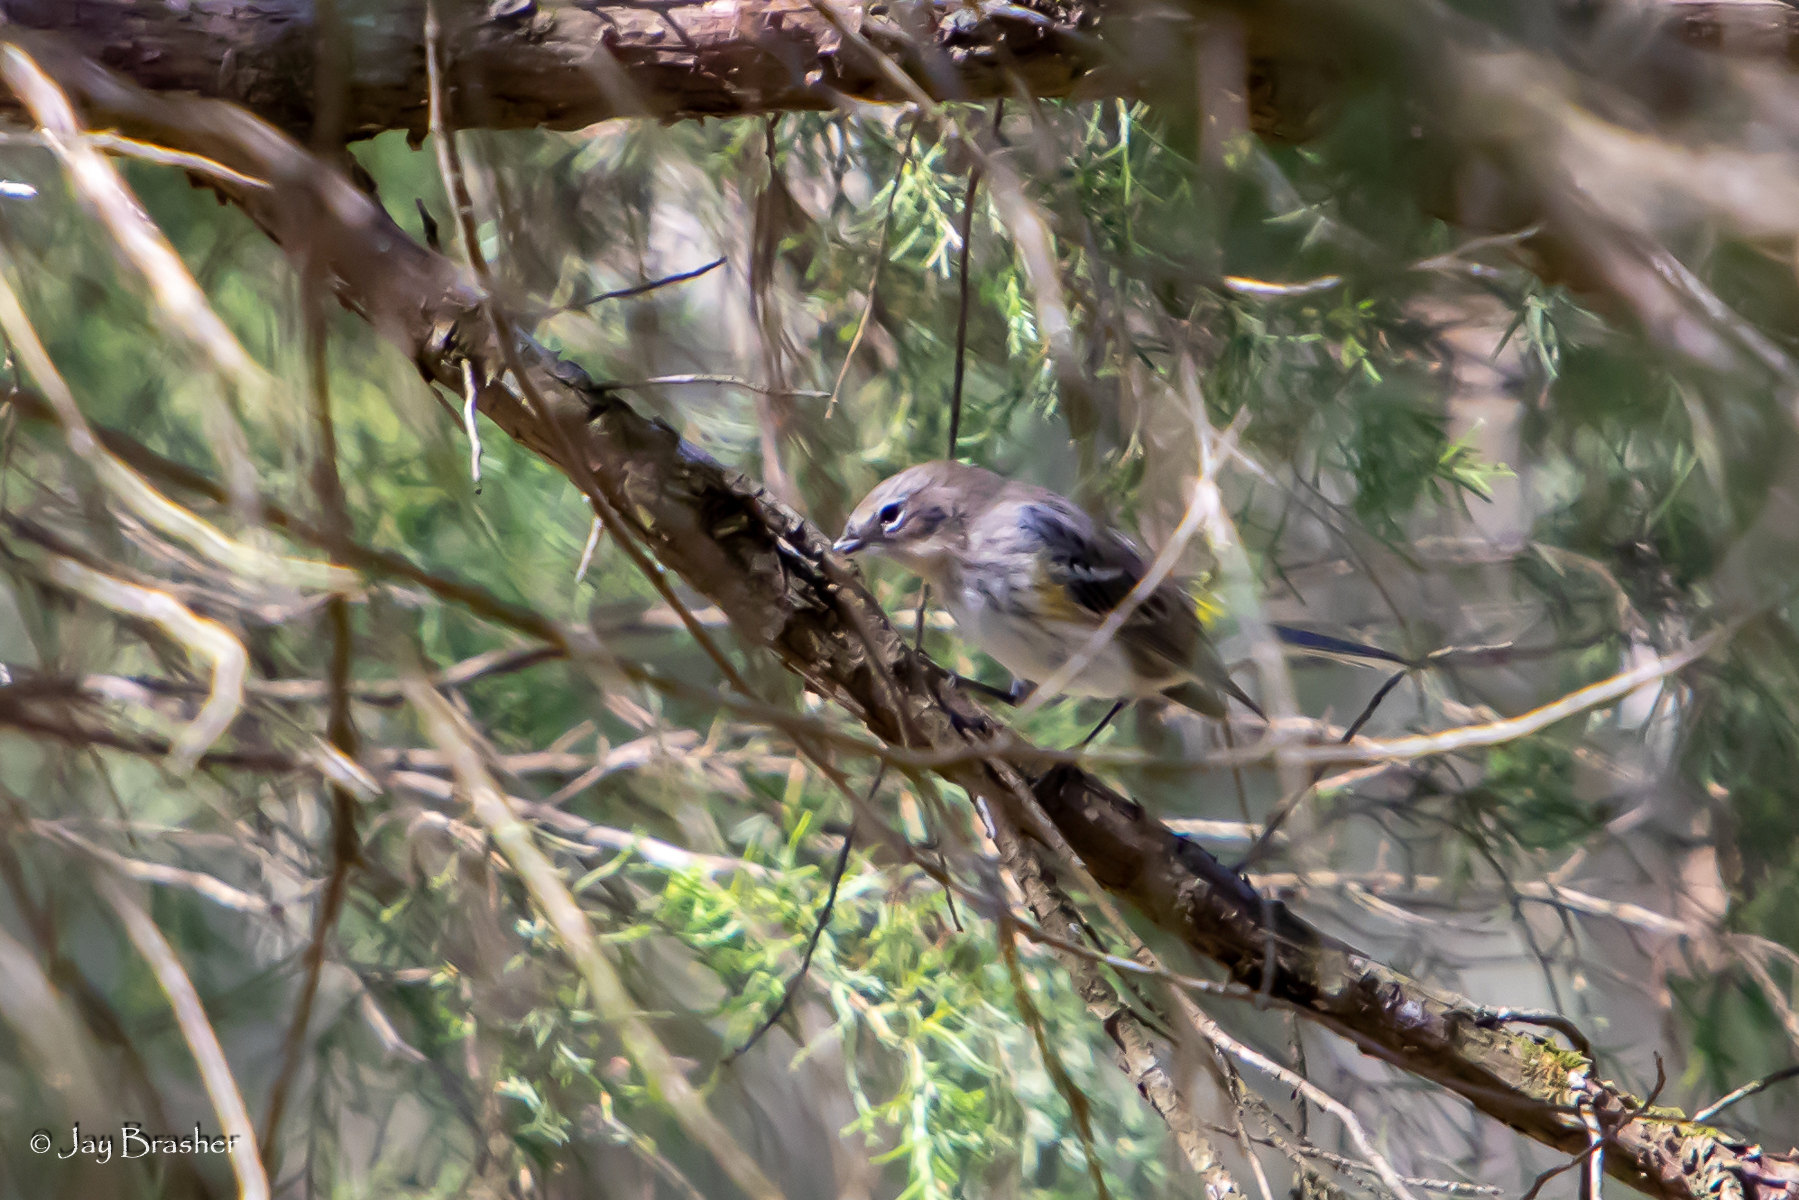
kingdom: Animalia
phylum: Chordata
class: Aves
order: Passeriformes
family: Parulidae
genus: Setophaga
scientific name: Setophaga coronata
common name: Myrtle warbler
